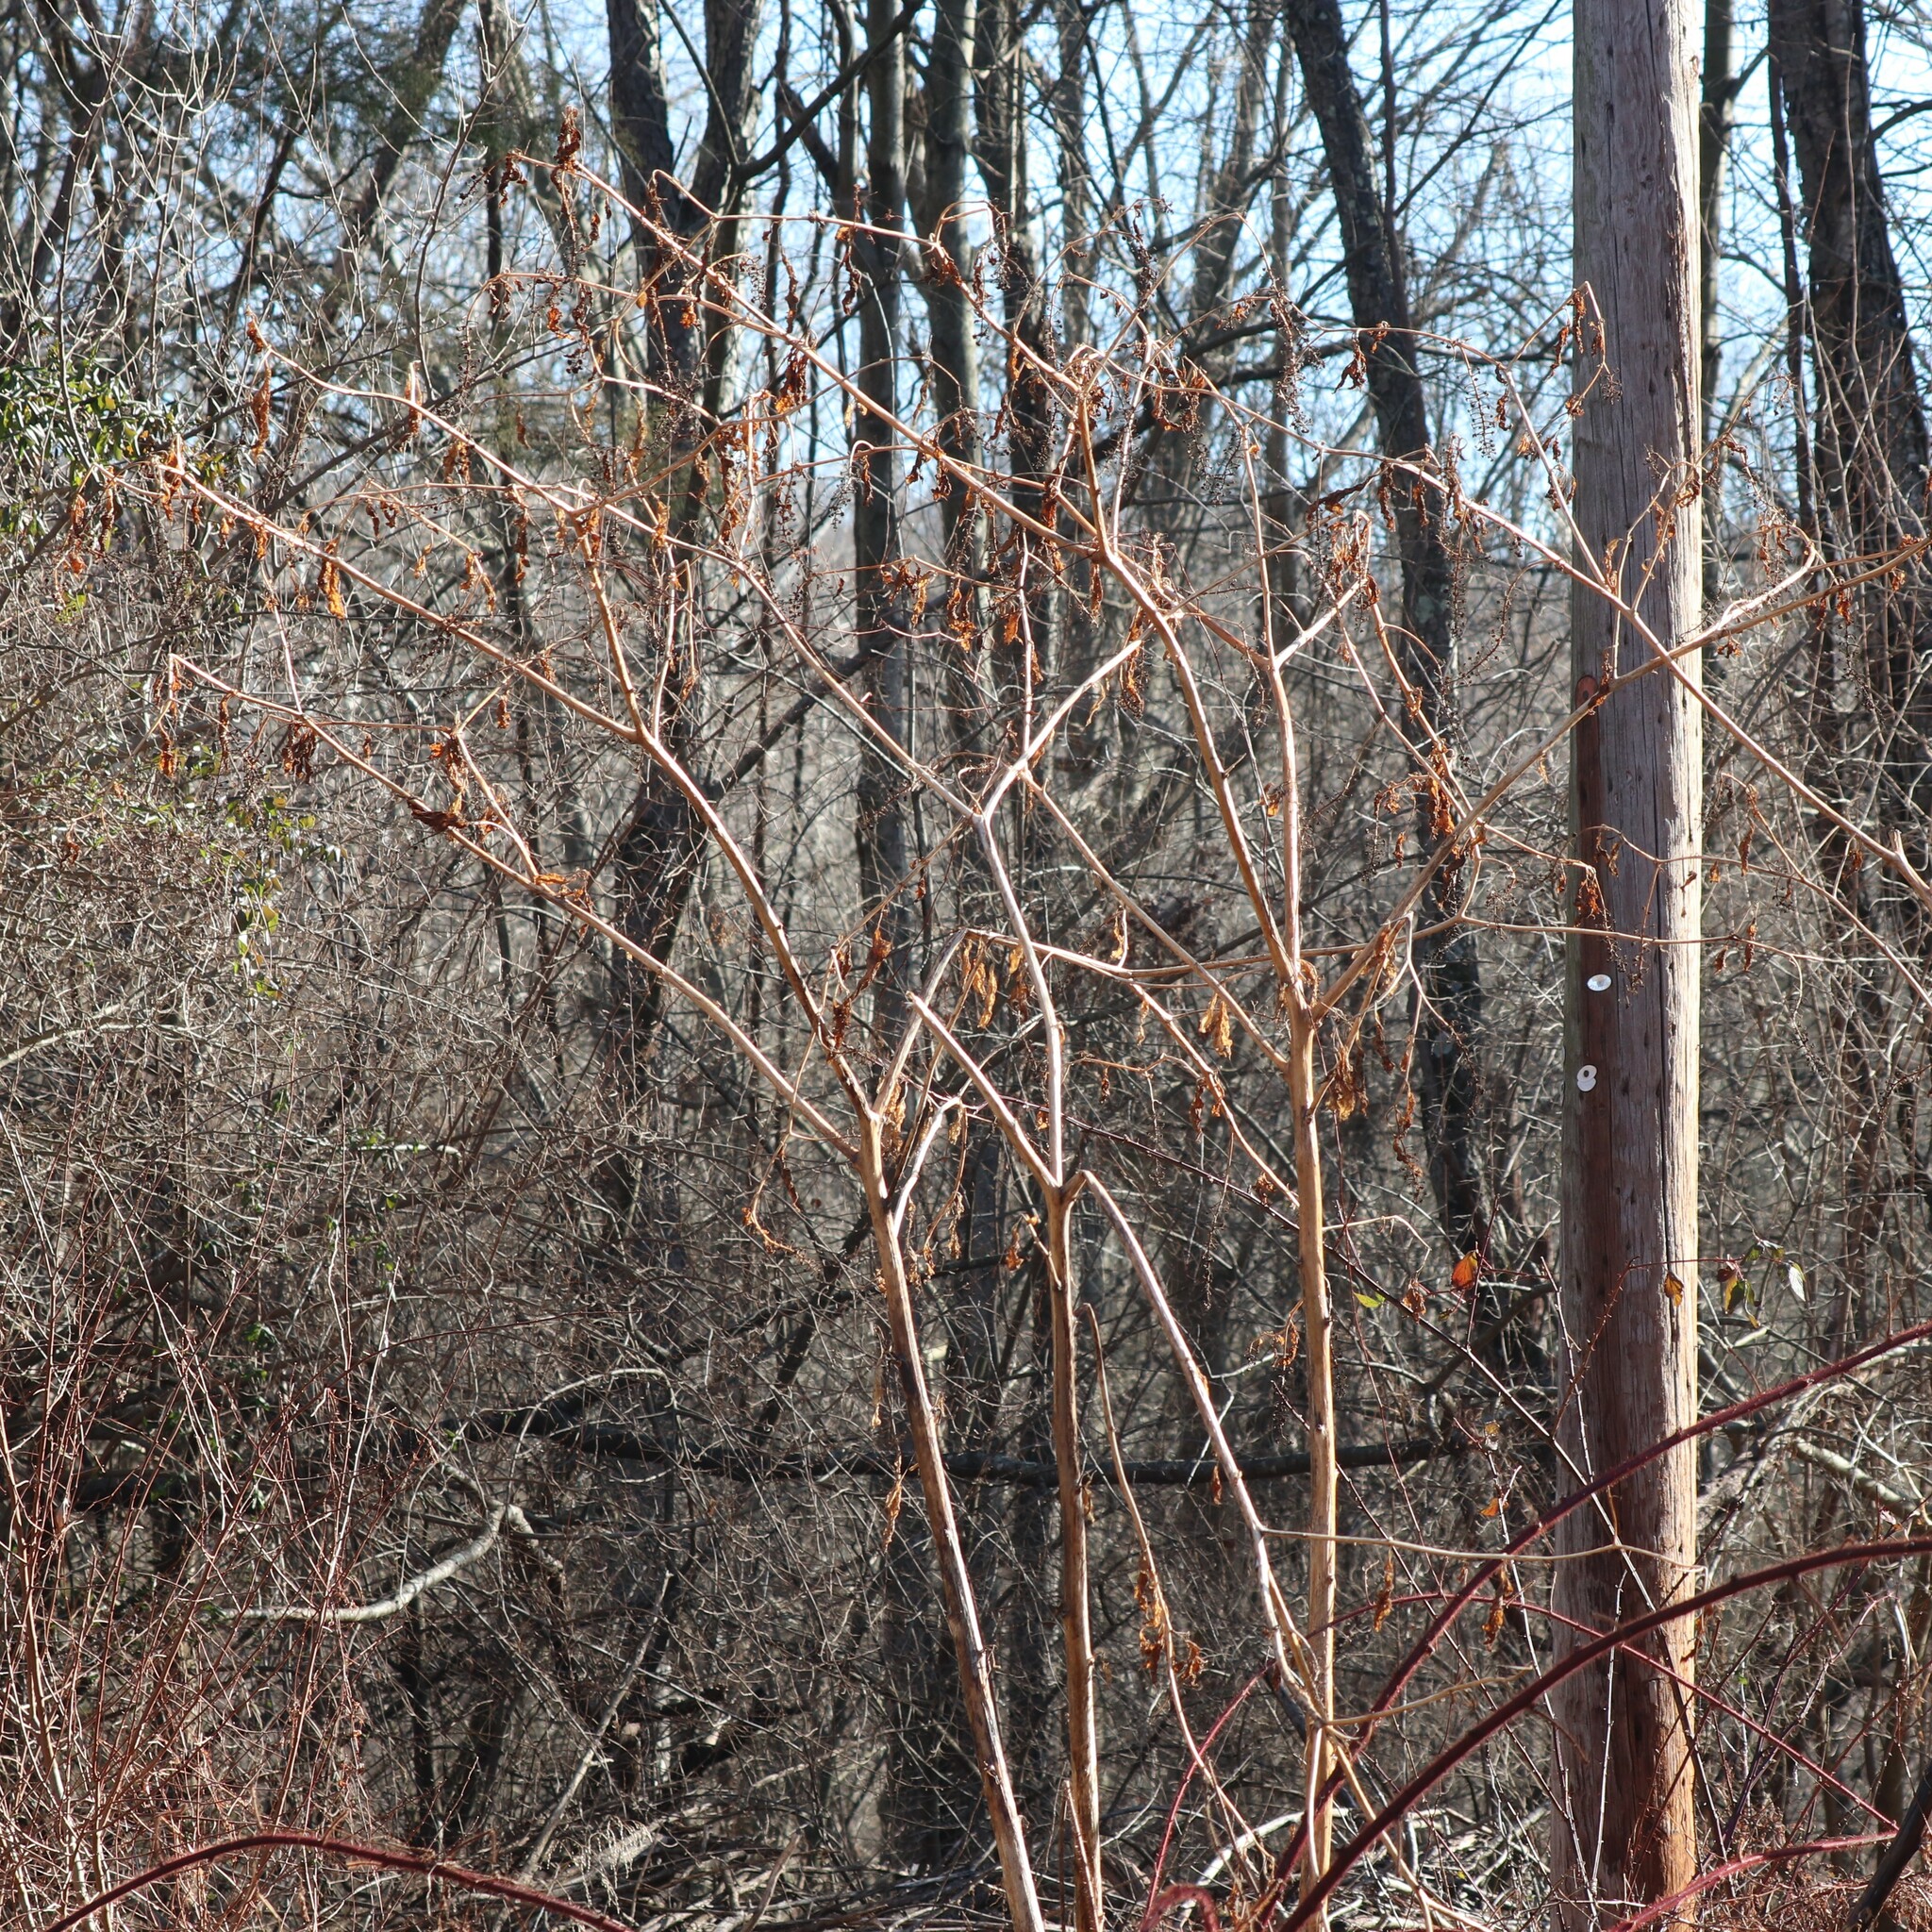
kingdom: Plantae
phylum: Tracheophyta
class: Magnoliopsida
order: Caryophyllales
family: Phytolaccaceae
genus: Phytolacca
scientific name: Phytolacca americana
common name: American pokeweed
